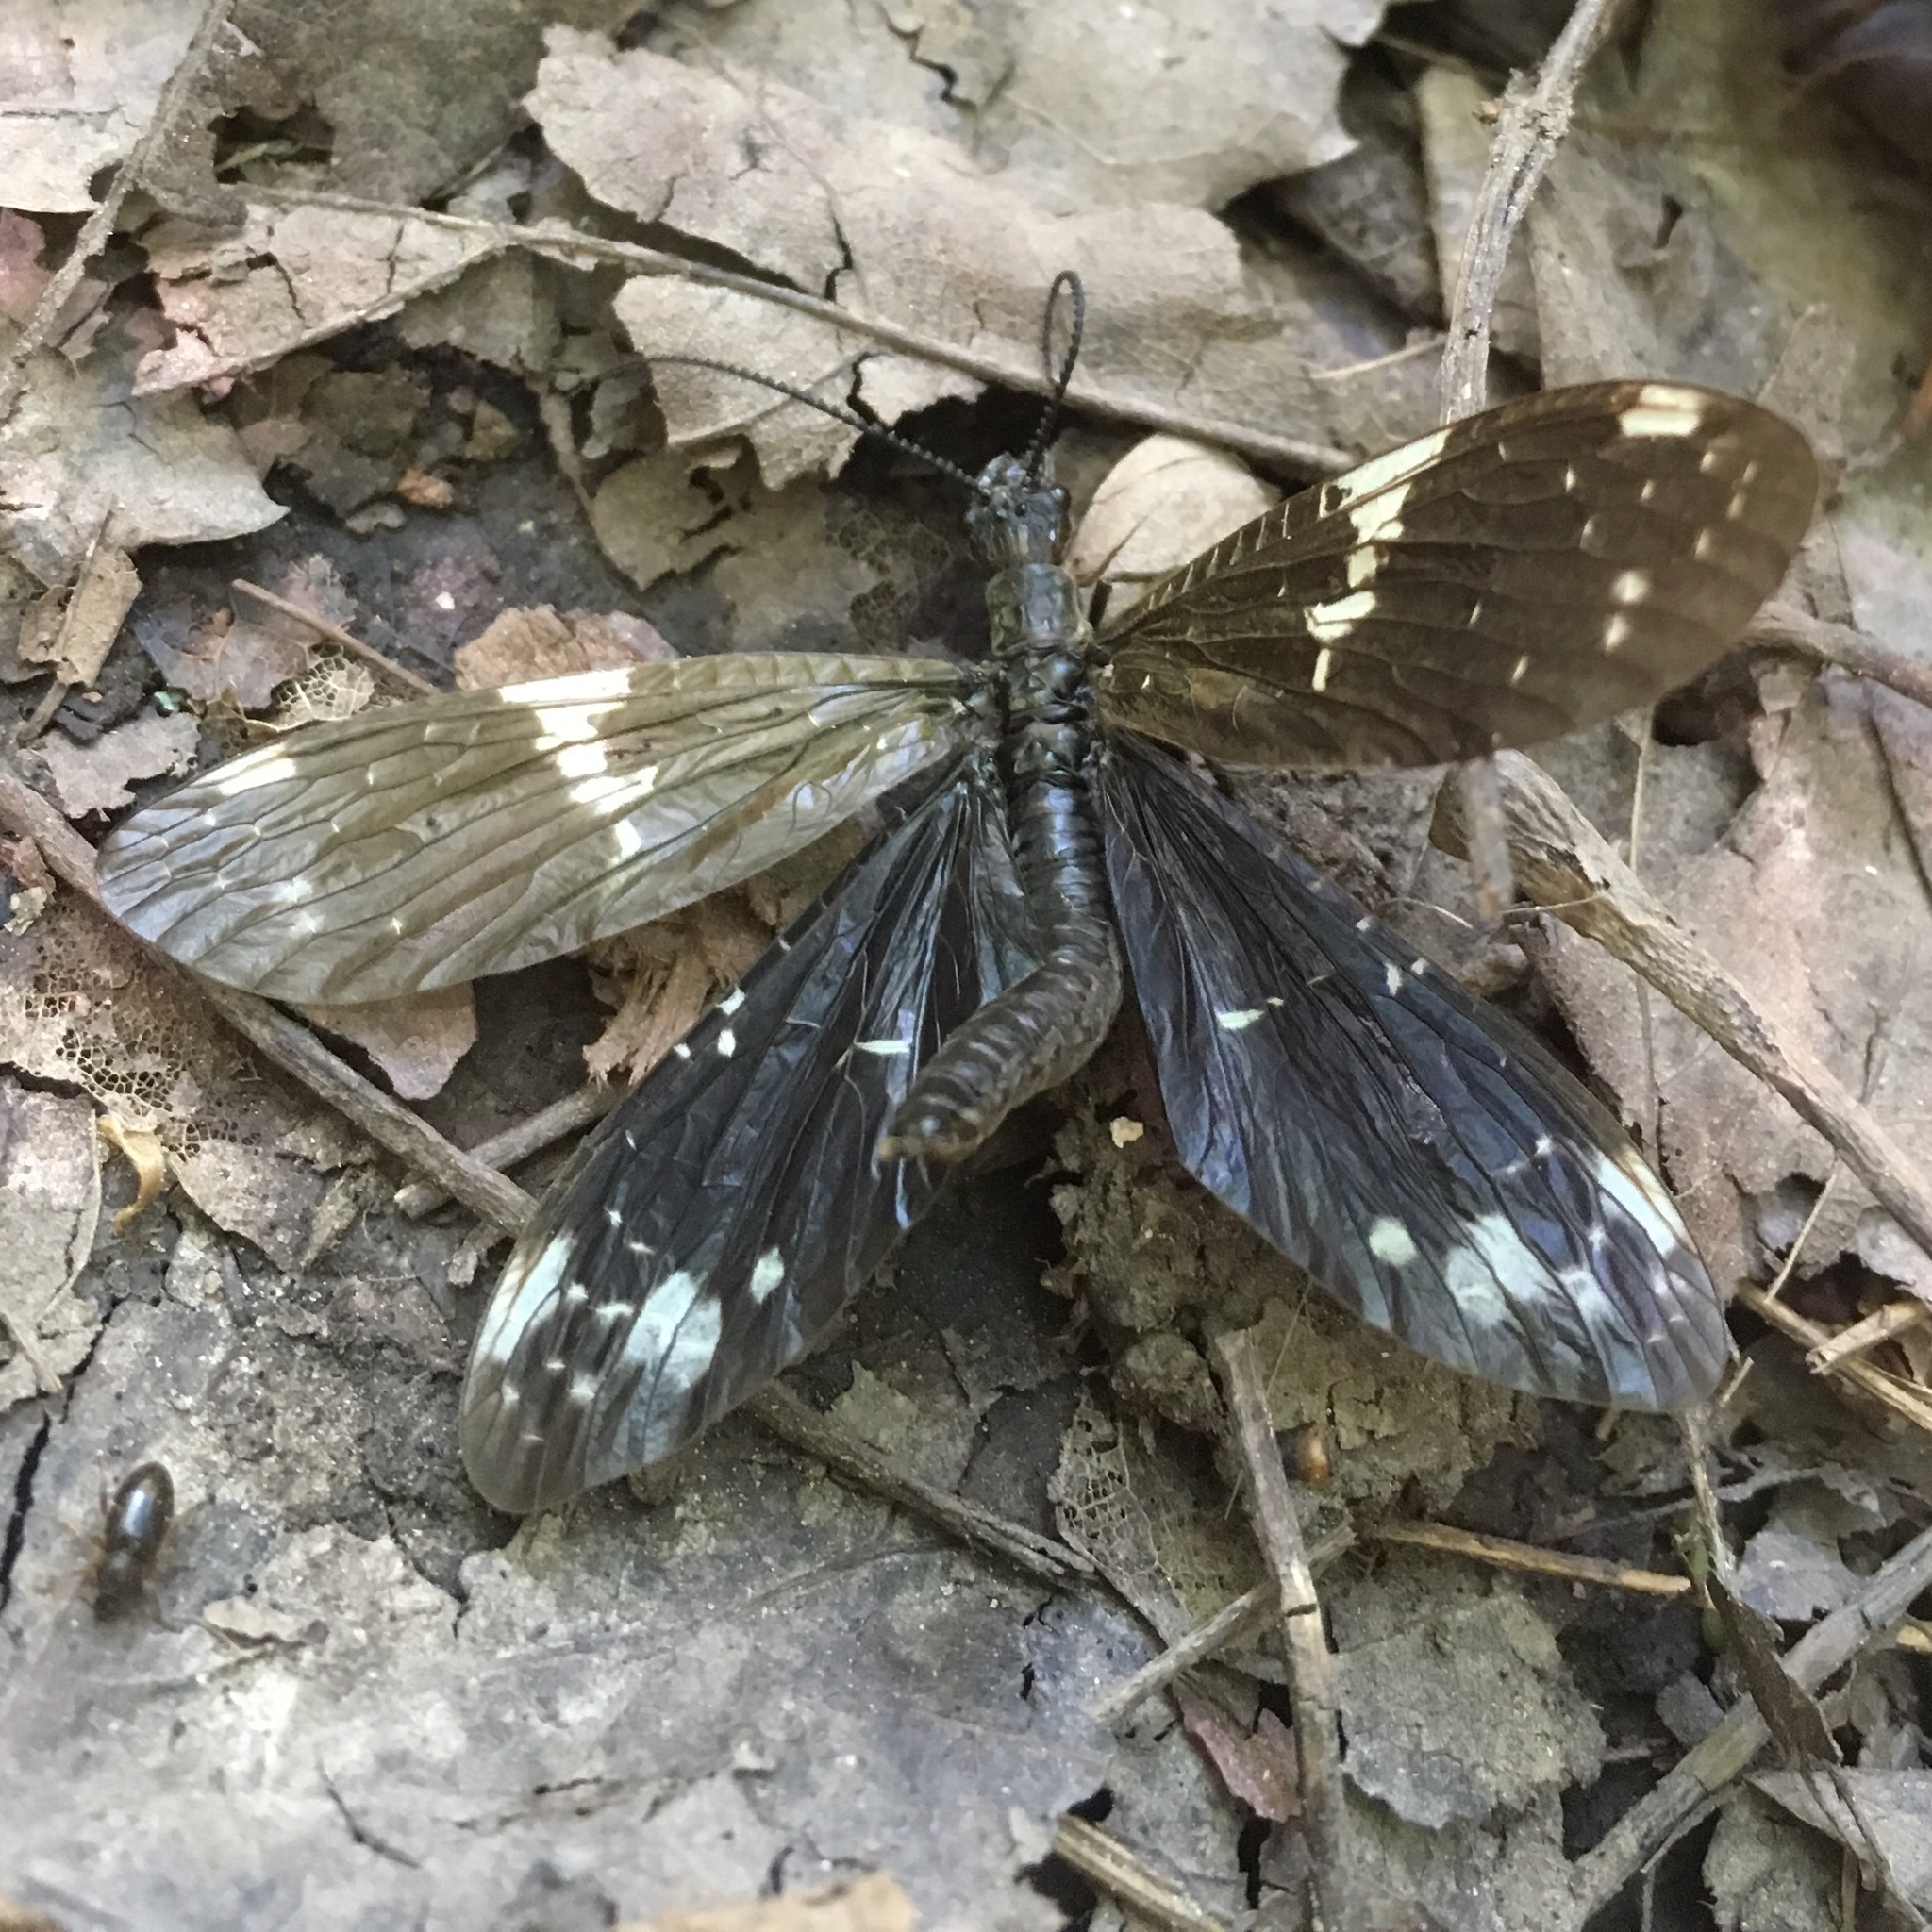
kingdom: Animalia
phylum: Arthropoda
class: Insecta
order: Megaloptera
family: Corydalidae
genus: Nigronia
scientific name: Nigronia serricornis
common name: Serrate dark fishfly
